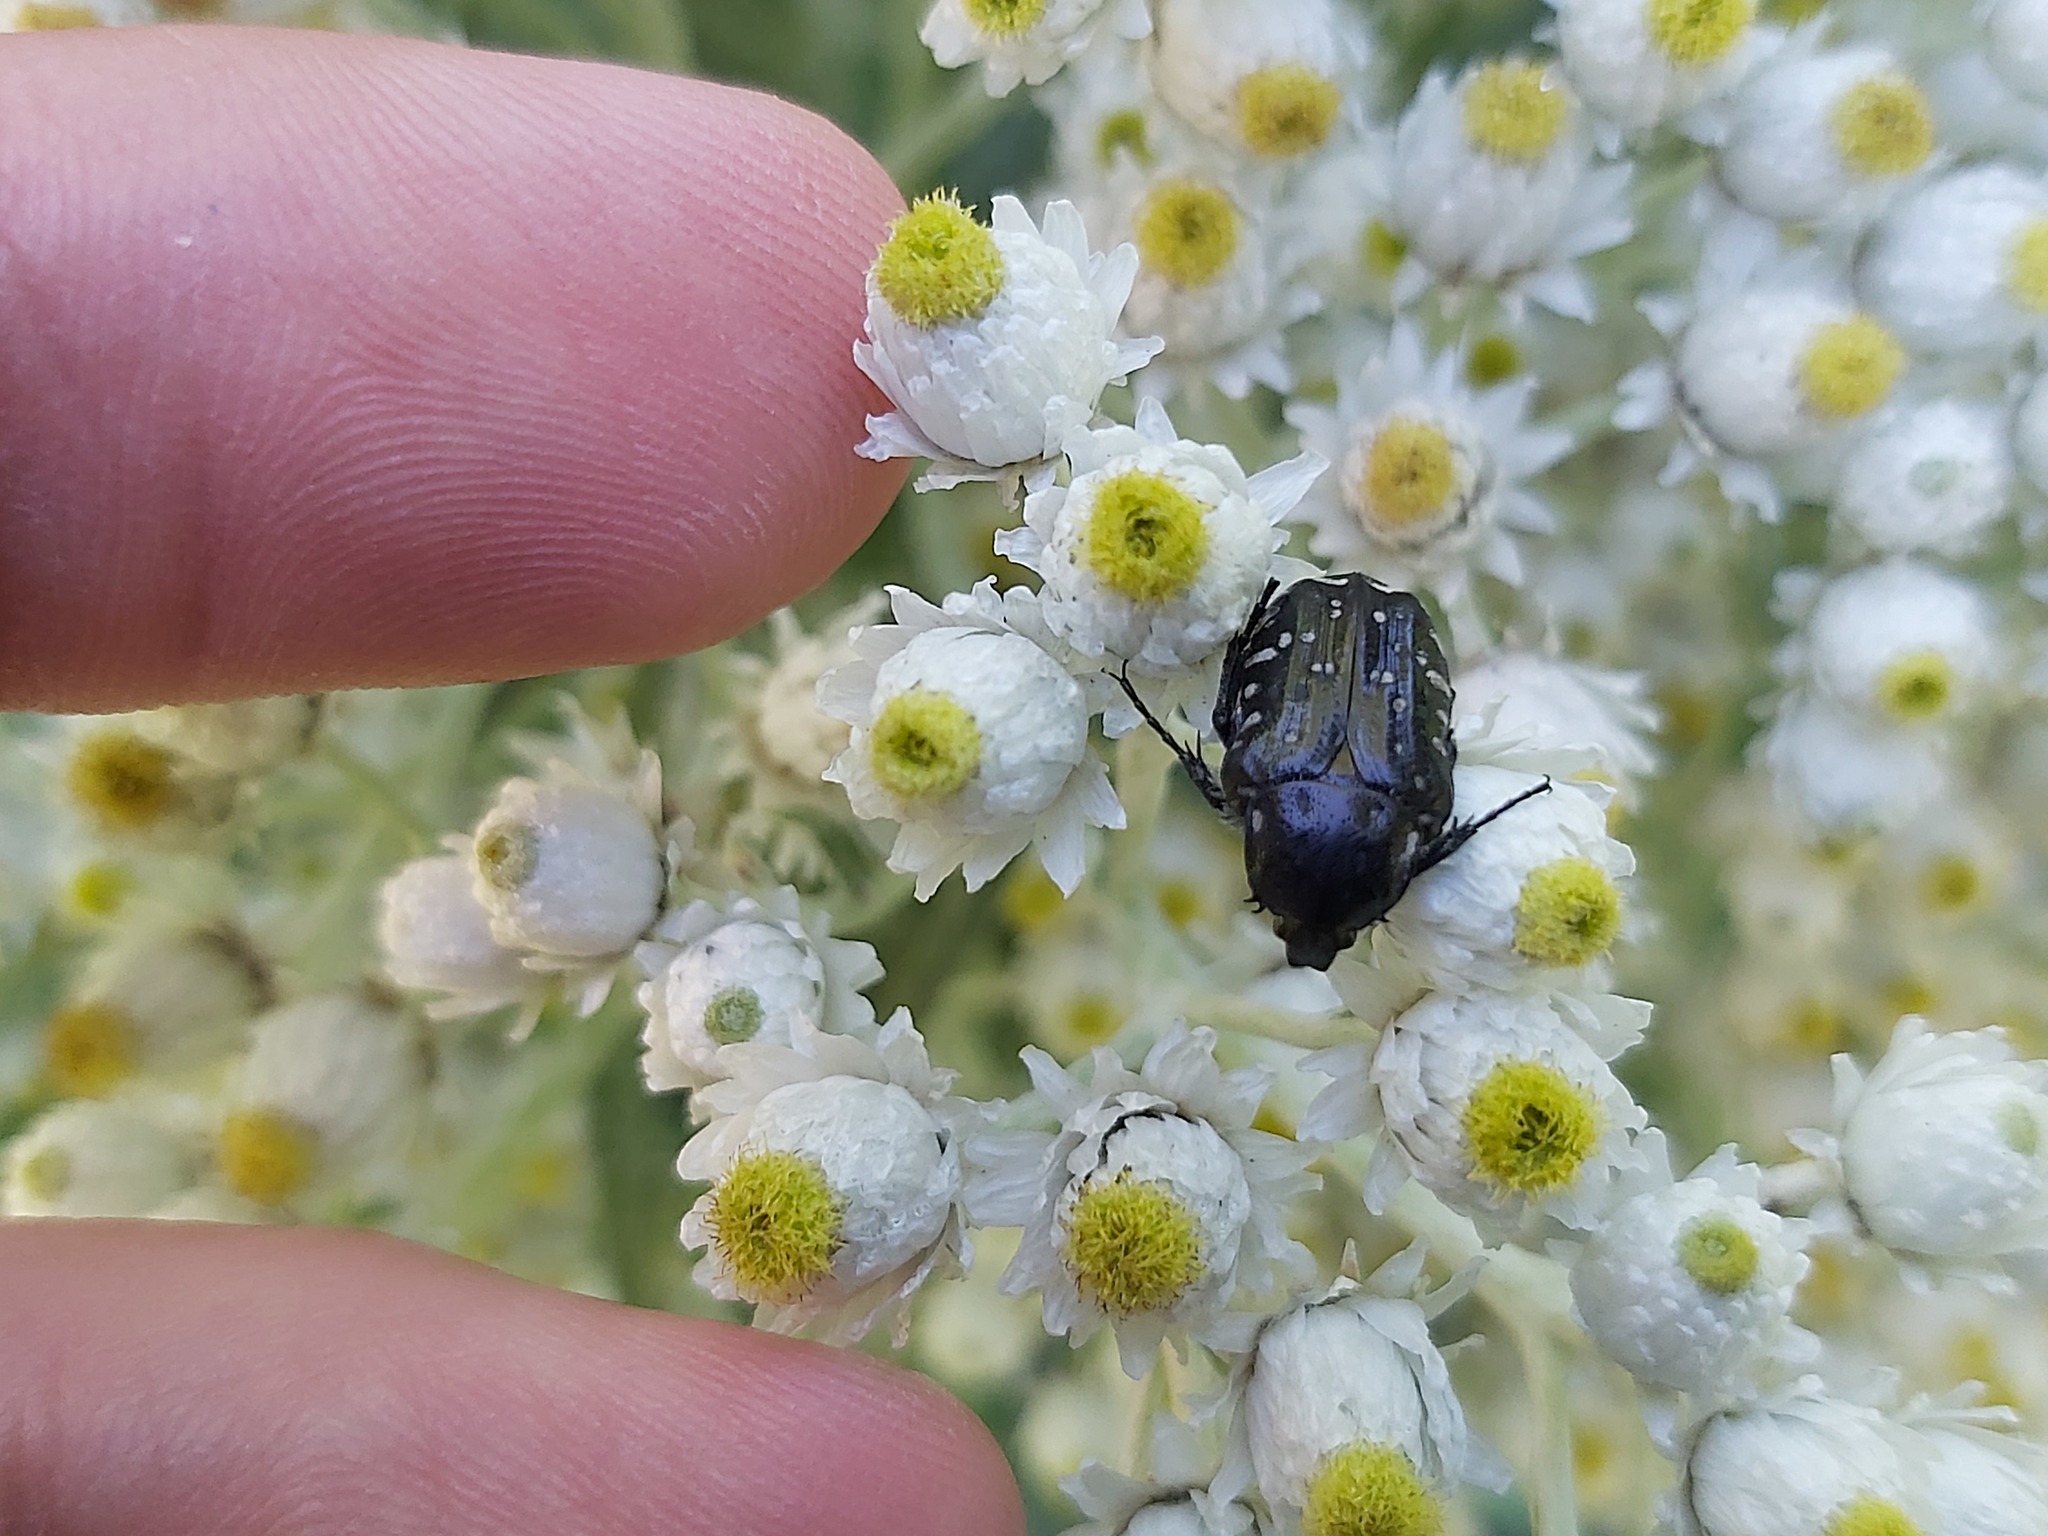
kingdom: Animalia
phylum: Arthropoda
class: Insecta
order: Coleoptera
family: Scarabaeidae
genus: Oxythyrea
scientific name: Oxythyrea funesta
